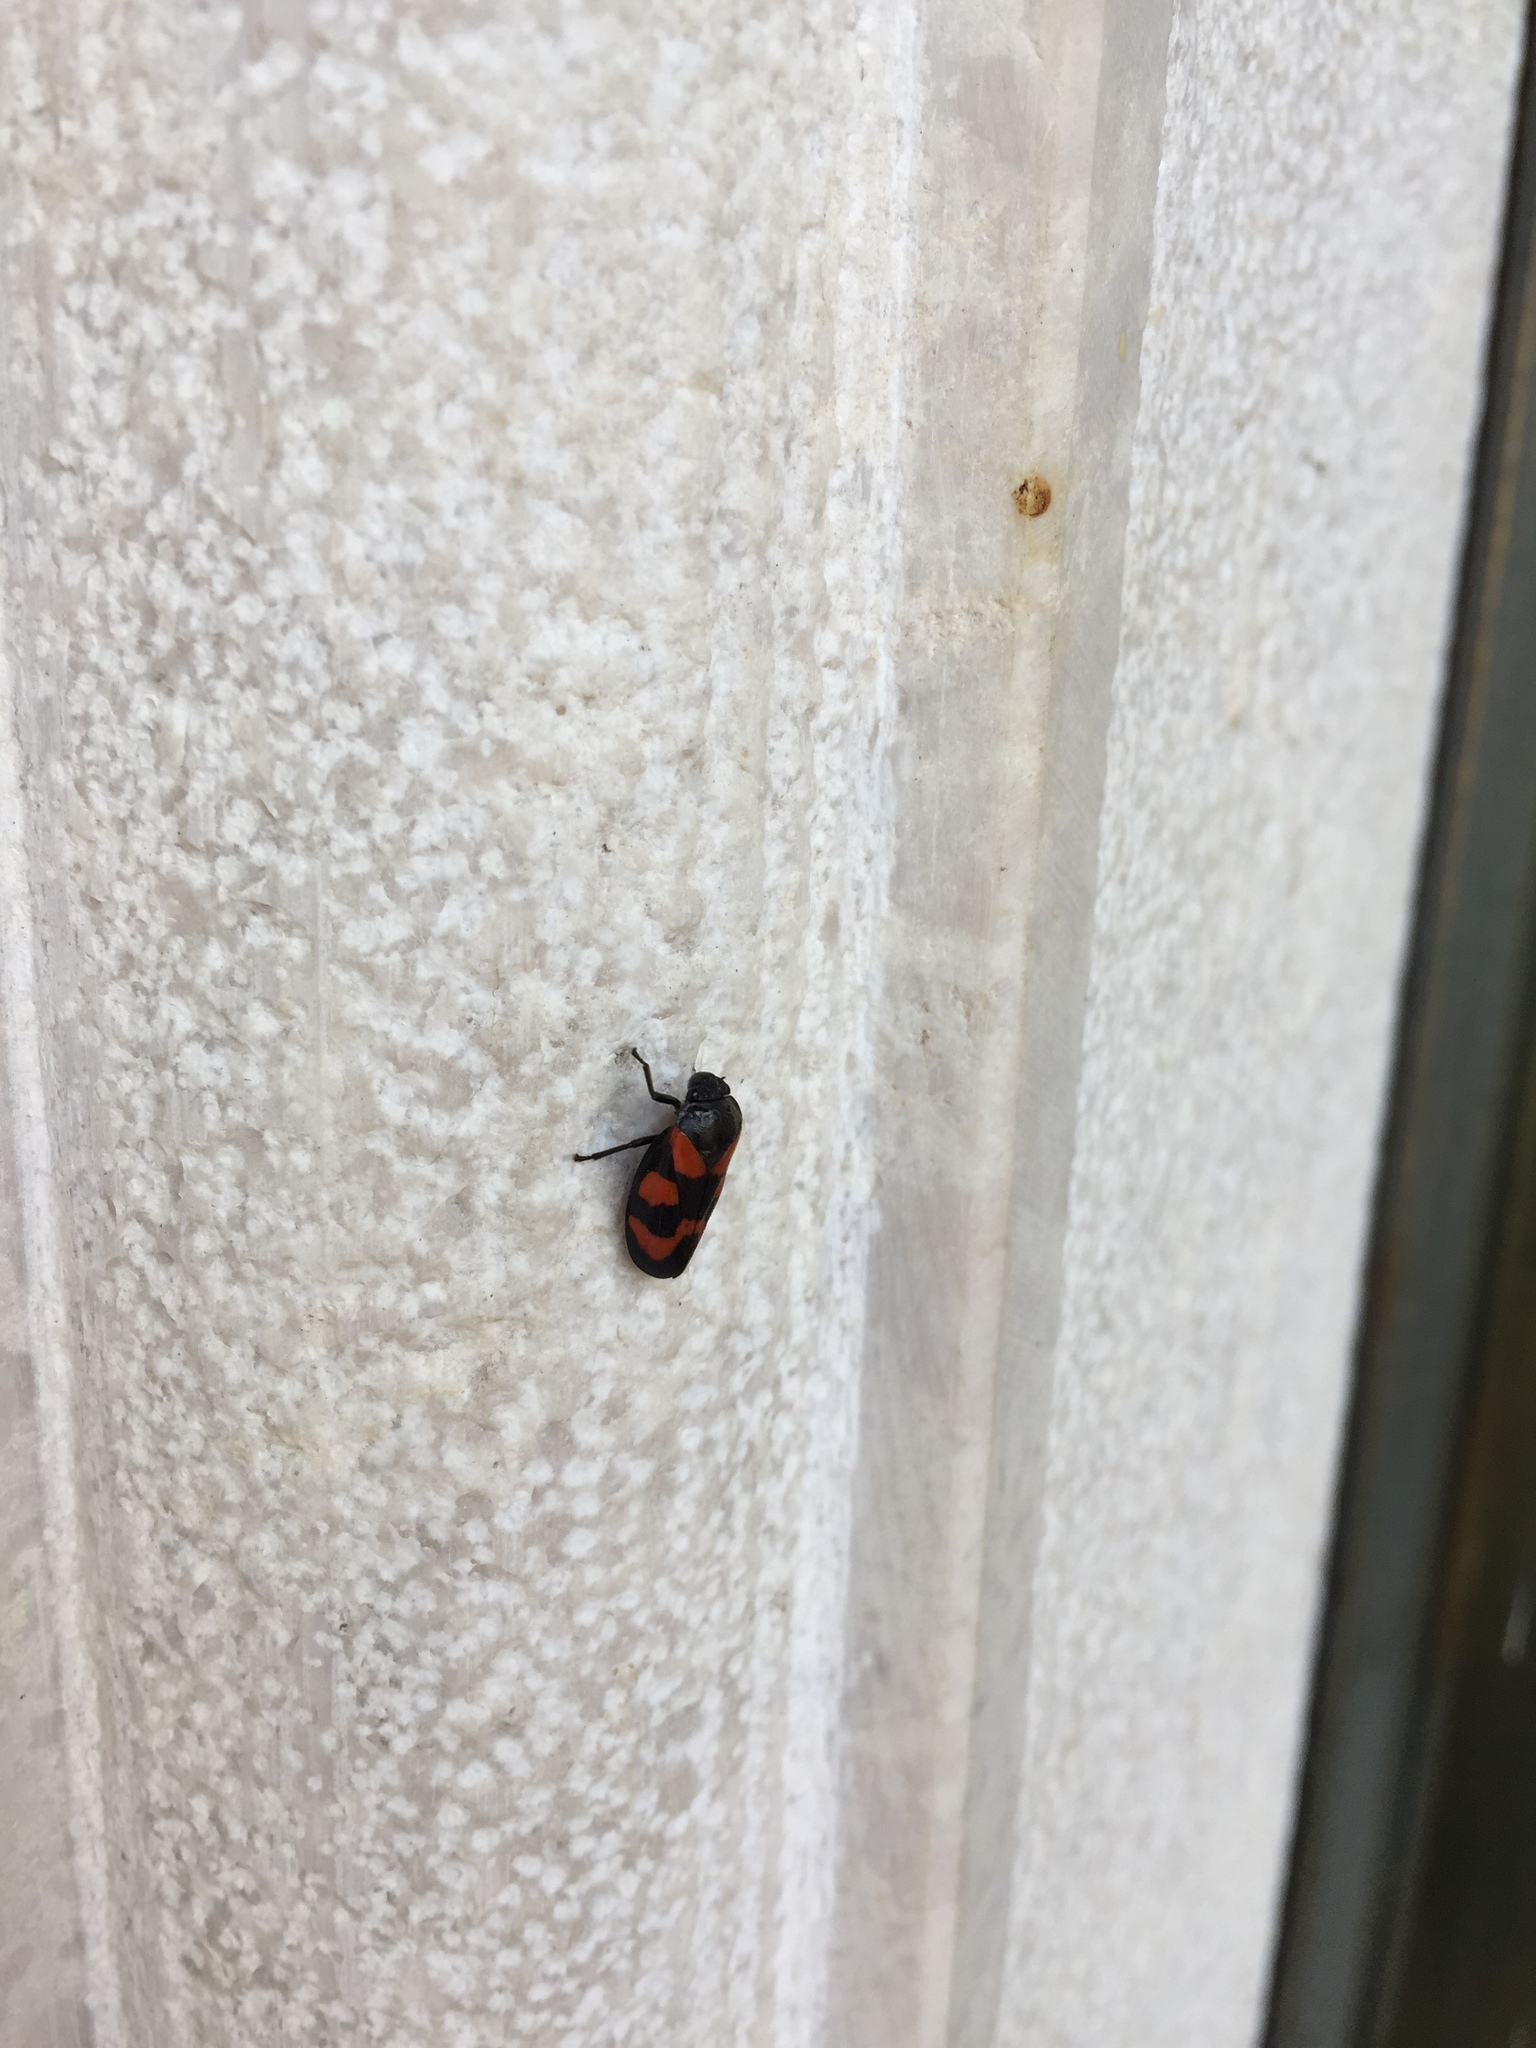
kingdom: Animalia
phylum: Arthropoda
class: Insecta
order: Hemiptera
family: Cercopidae
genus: Cercopis
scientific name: Cercopis vulnerata
